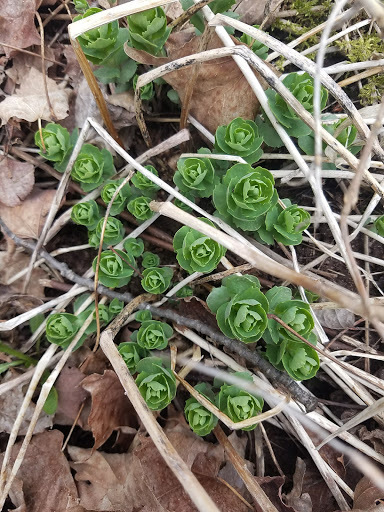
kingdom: Plantae
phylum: Tracheophyta
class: Magnoliopsida
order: Saxifragales
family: Crassulaceae
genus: Hylotelephium
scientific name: Hylotelephium telephium
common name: Live-forever
